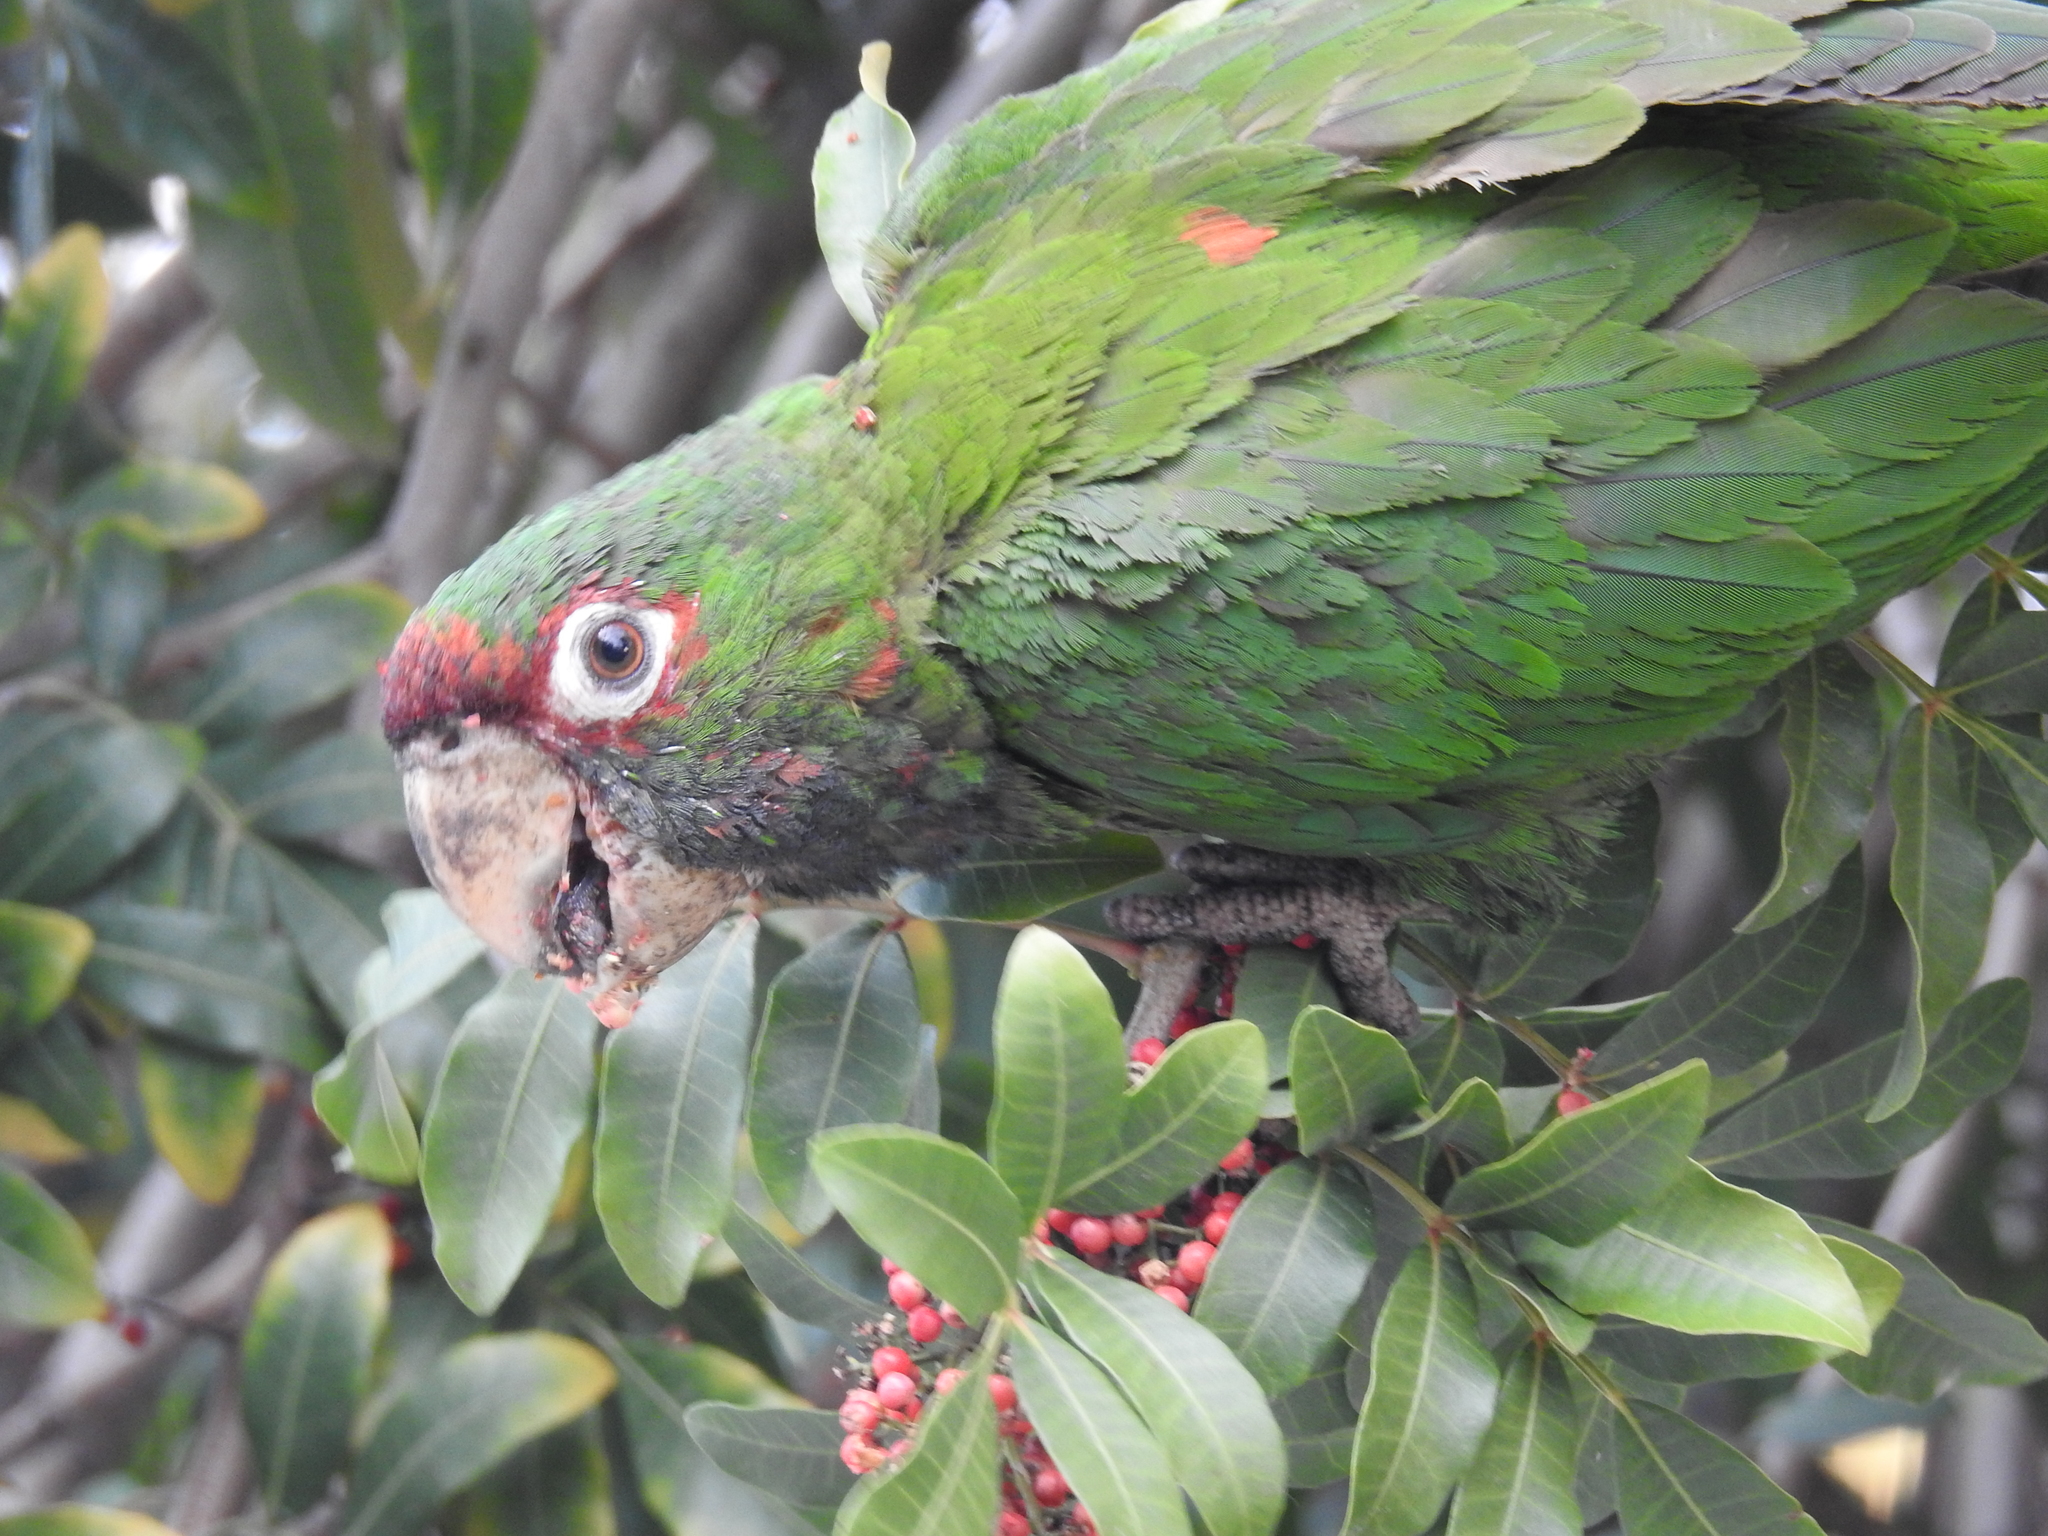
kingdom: Animalia
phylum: Chordata
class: Aves
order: Psittaciformes
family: Psittacidae
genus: Aratinga
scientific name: Aratinga mitrata
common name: Mitred parakeet
